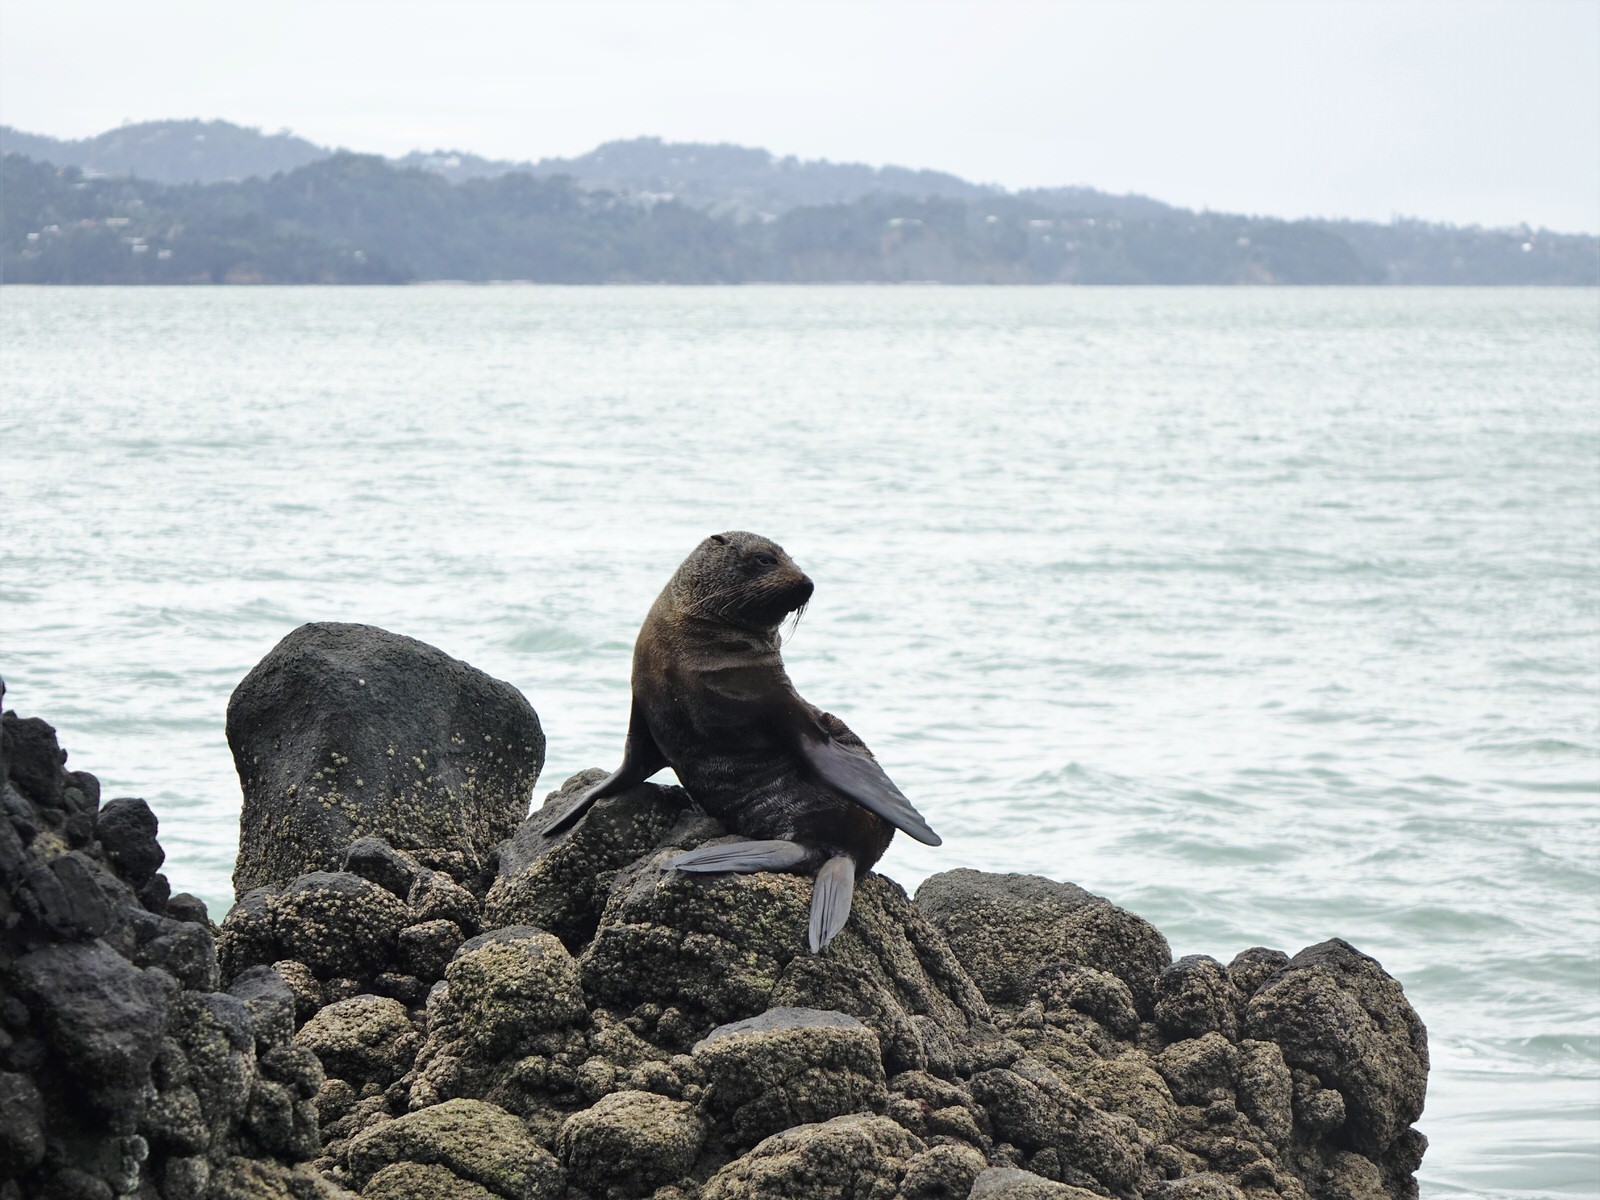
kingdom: Animalia
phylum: Chordata
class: Mammalia
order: Carnivora
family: Otariidae
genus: Arctocephalus
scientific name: Arctocephalus forsteri
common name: New zealand fur seal
